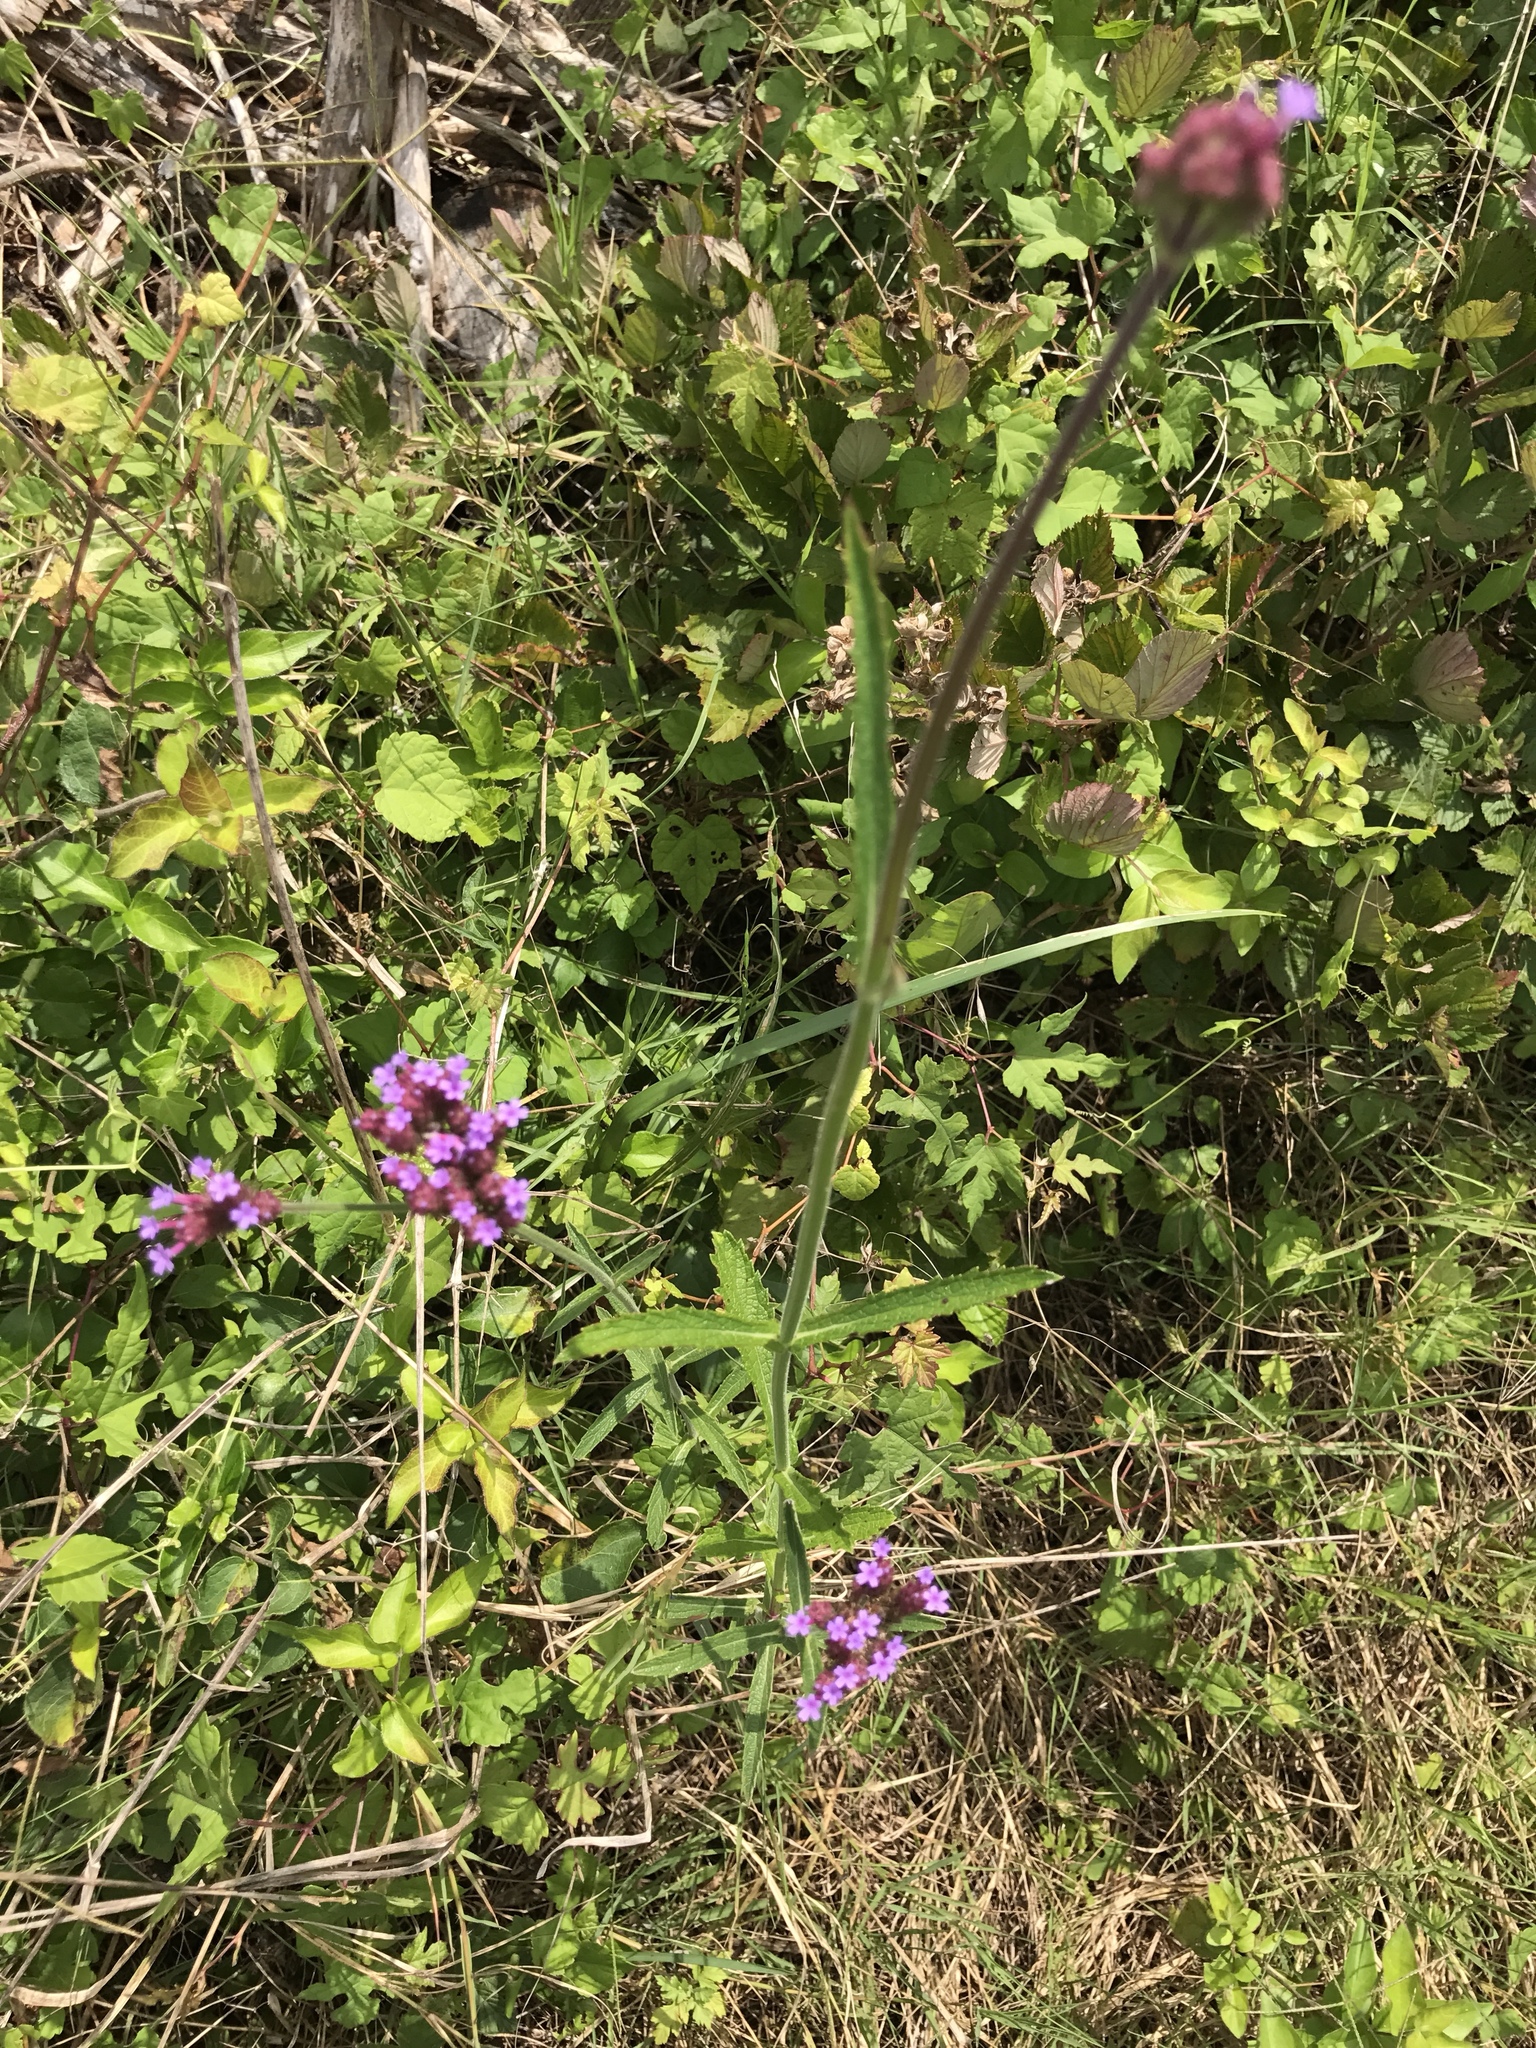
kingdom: Plantae
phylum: Tracheophyta
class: Magnoliopsida
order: Lamiales
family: Verbenaceae
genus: Verbena
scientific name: Verbena bonariensis
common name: Purpletop vervain
